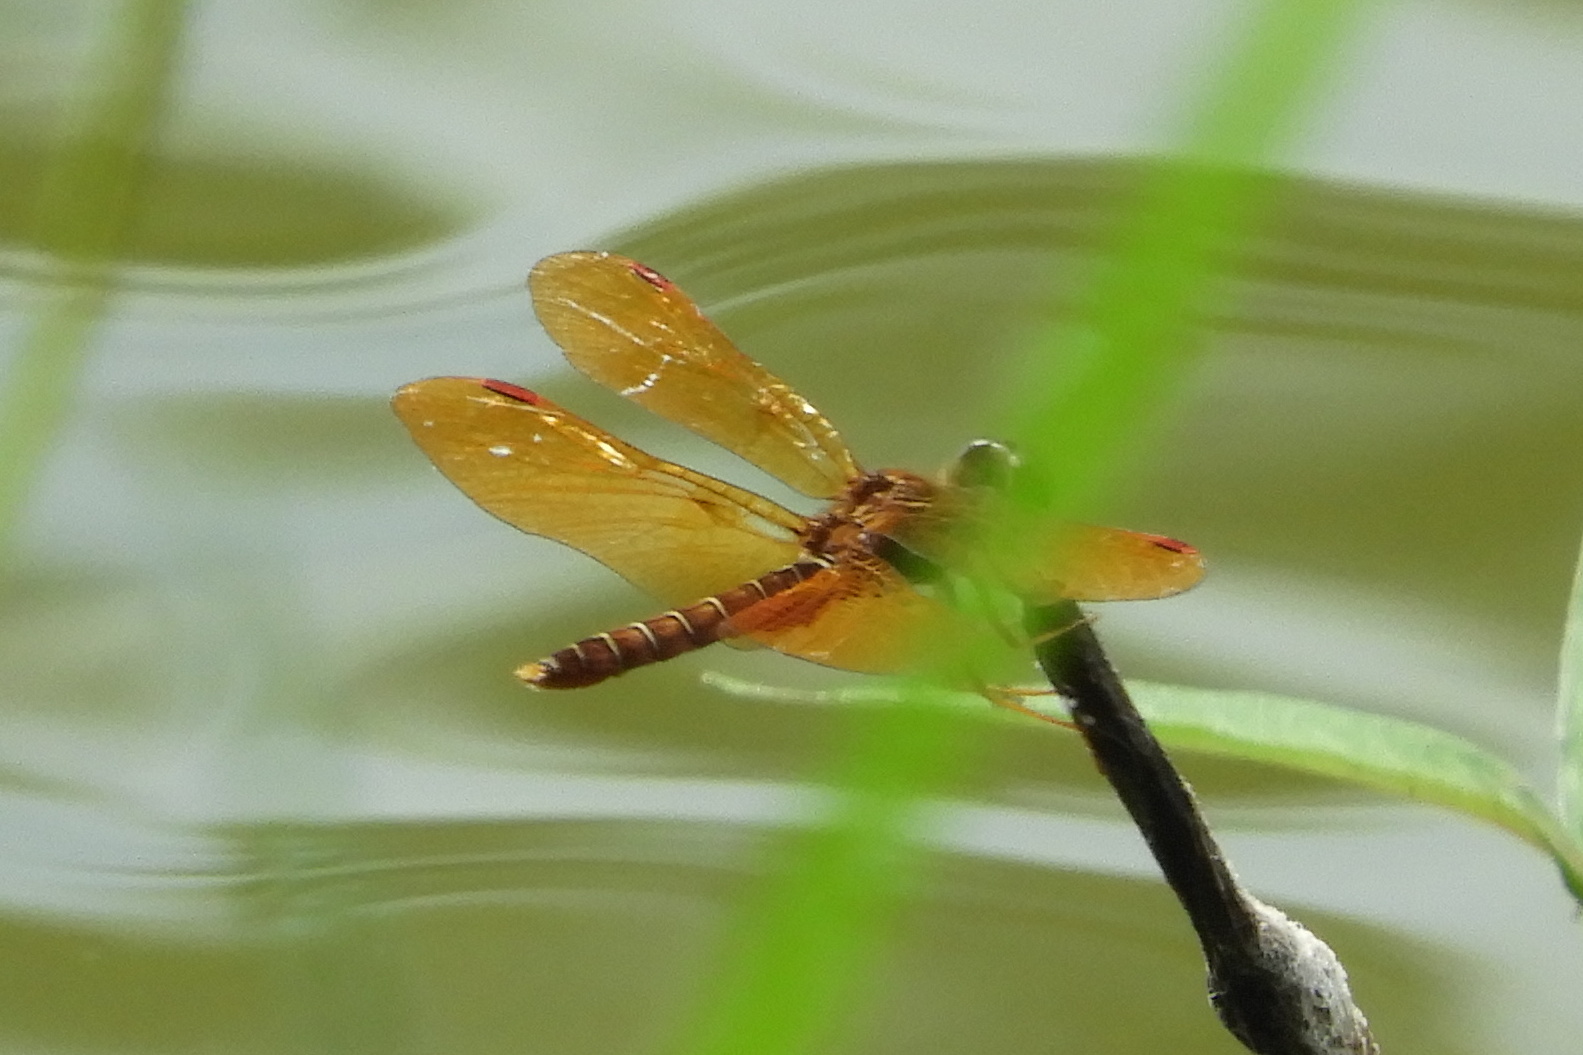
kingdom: Animalia
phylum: Arthropoda
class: Insecta
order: Odonata
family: Libellulidae
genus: Perithemis
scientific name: Perithemis tenera
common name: Eastern amberwing
